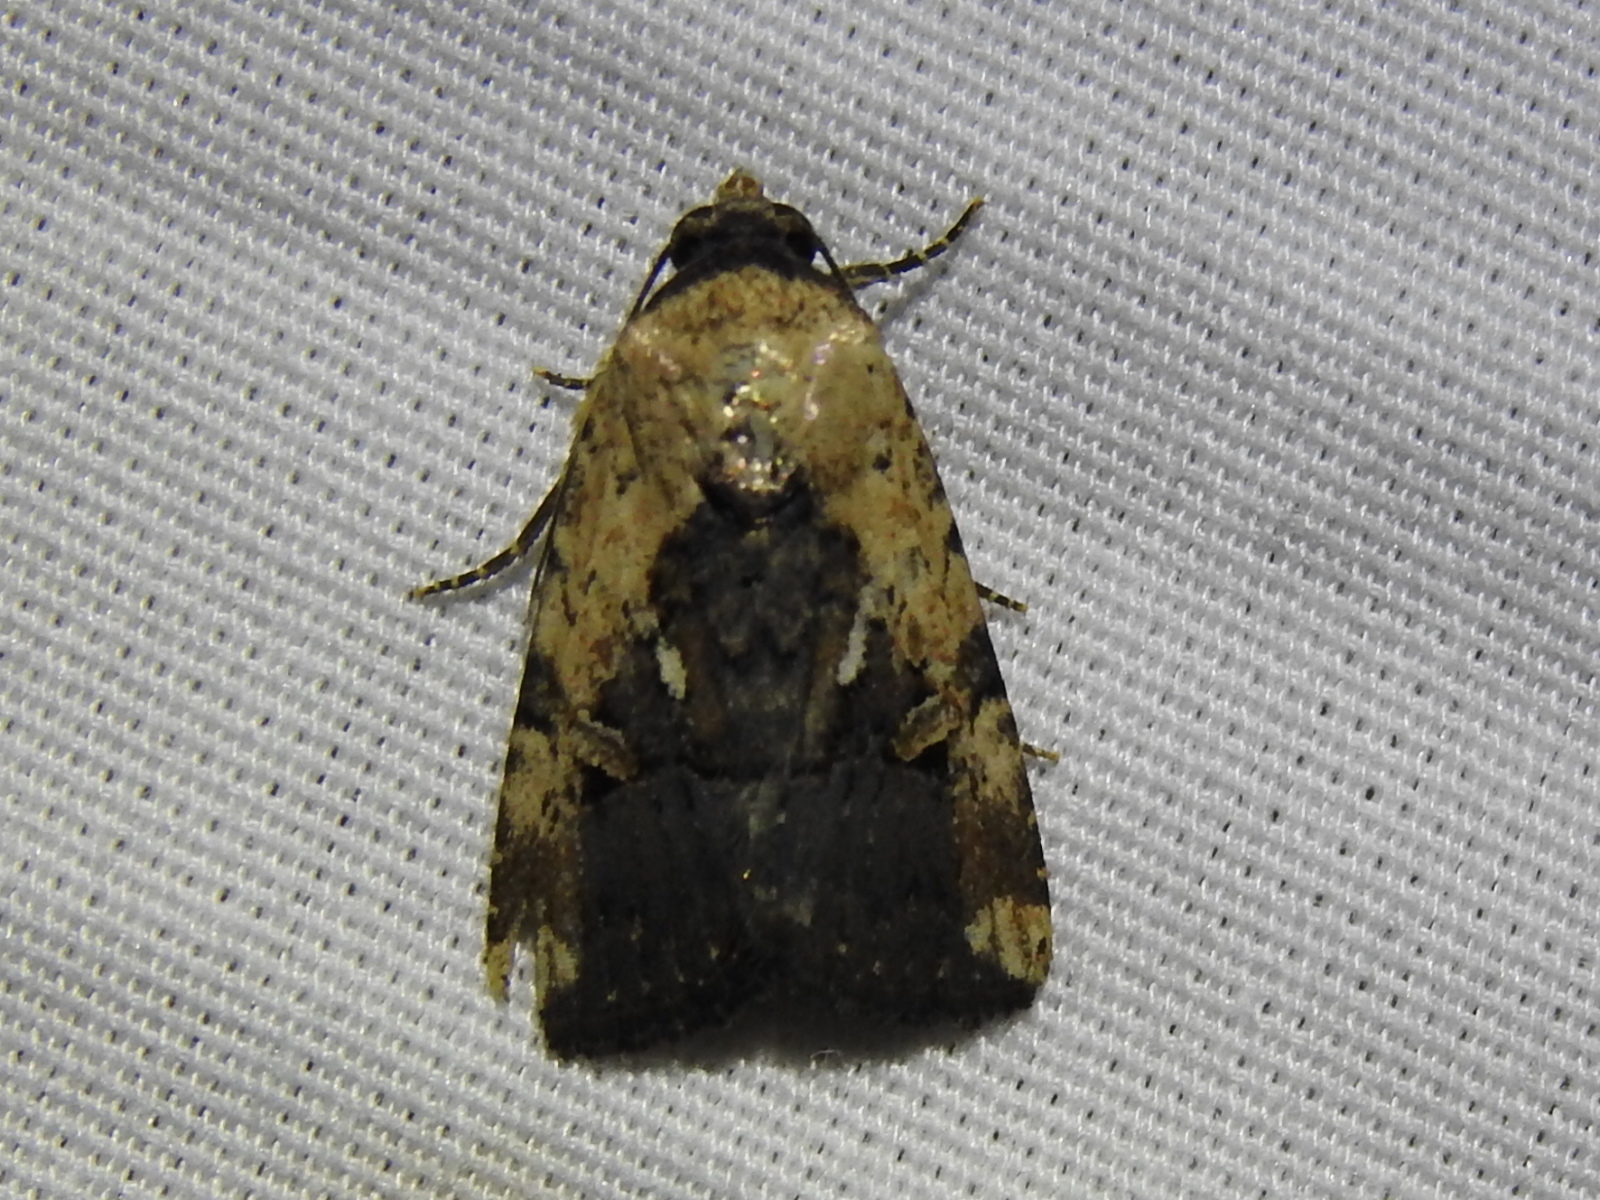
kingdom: Animalia
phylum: Arthropoda
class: Insecta
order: Lepidoptera
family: Noctuidae
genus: Elaphria
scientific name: Elaphria chalcedonia
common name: Chalcedony midget
